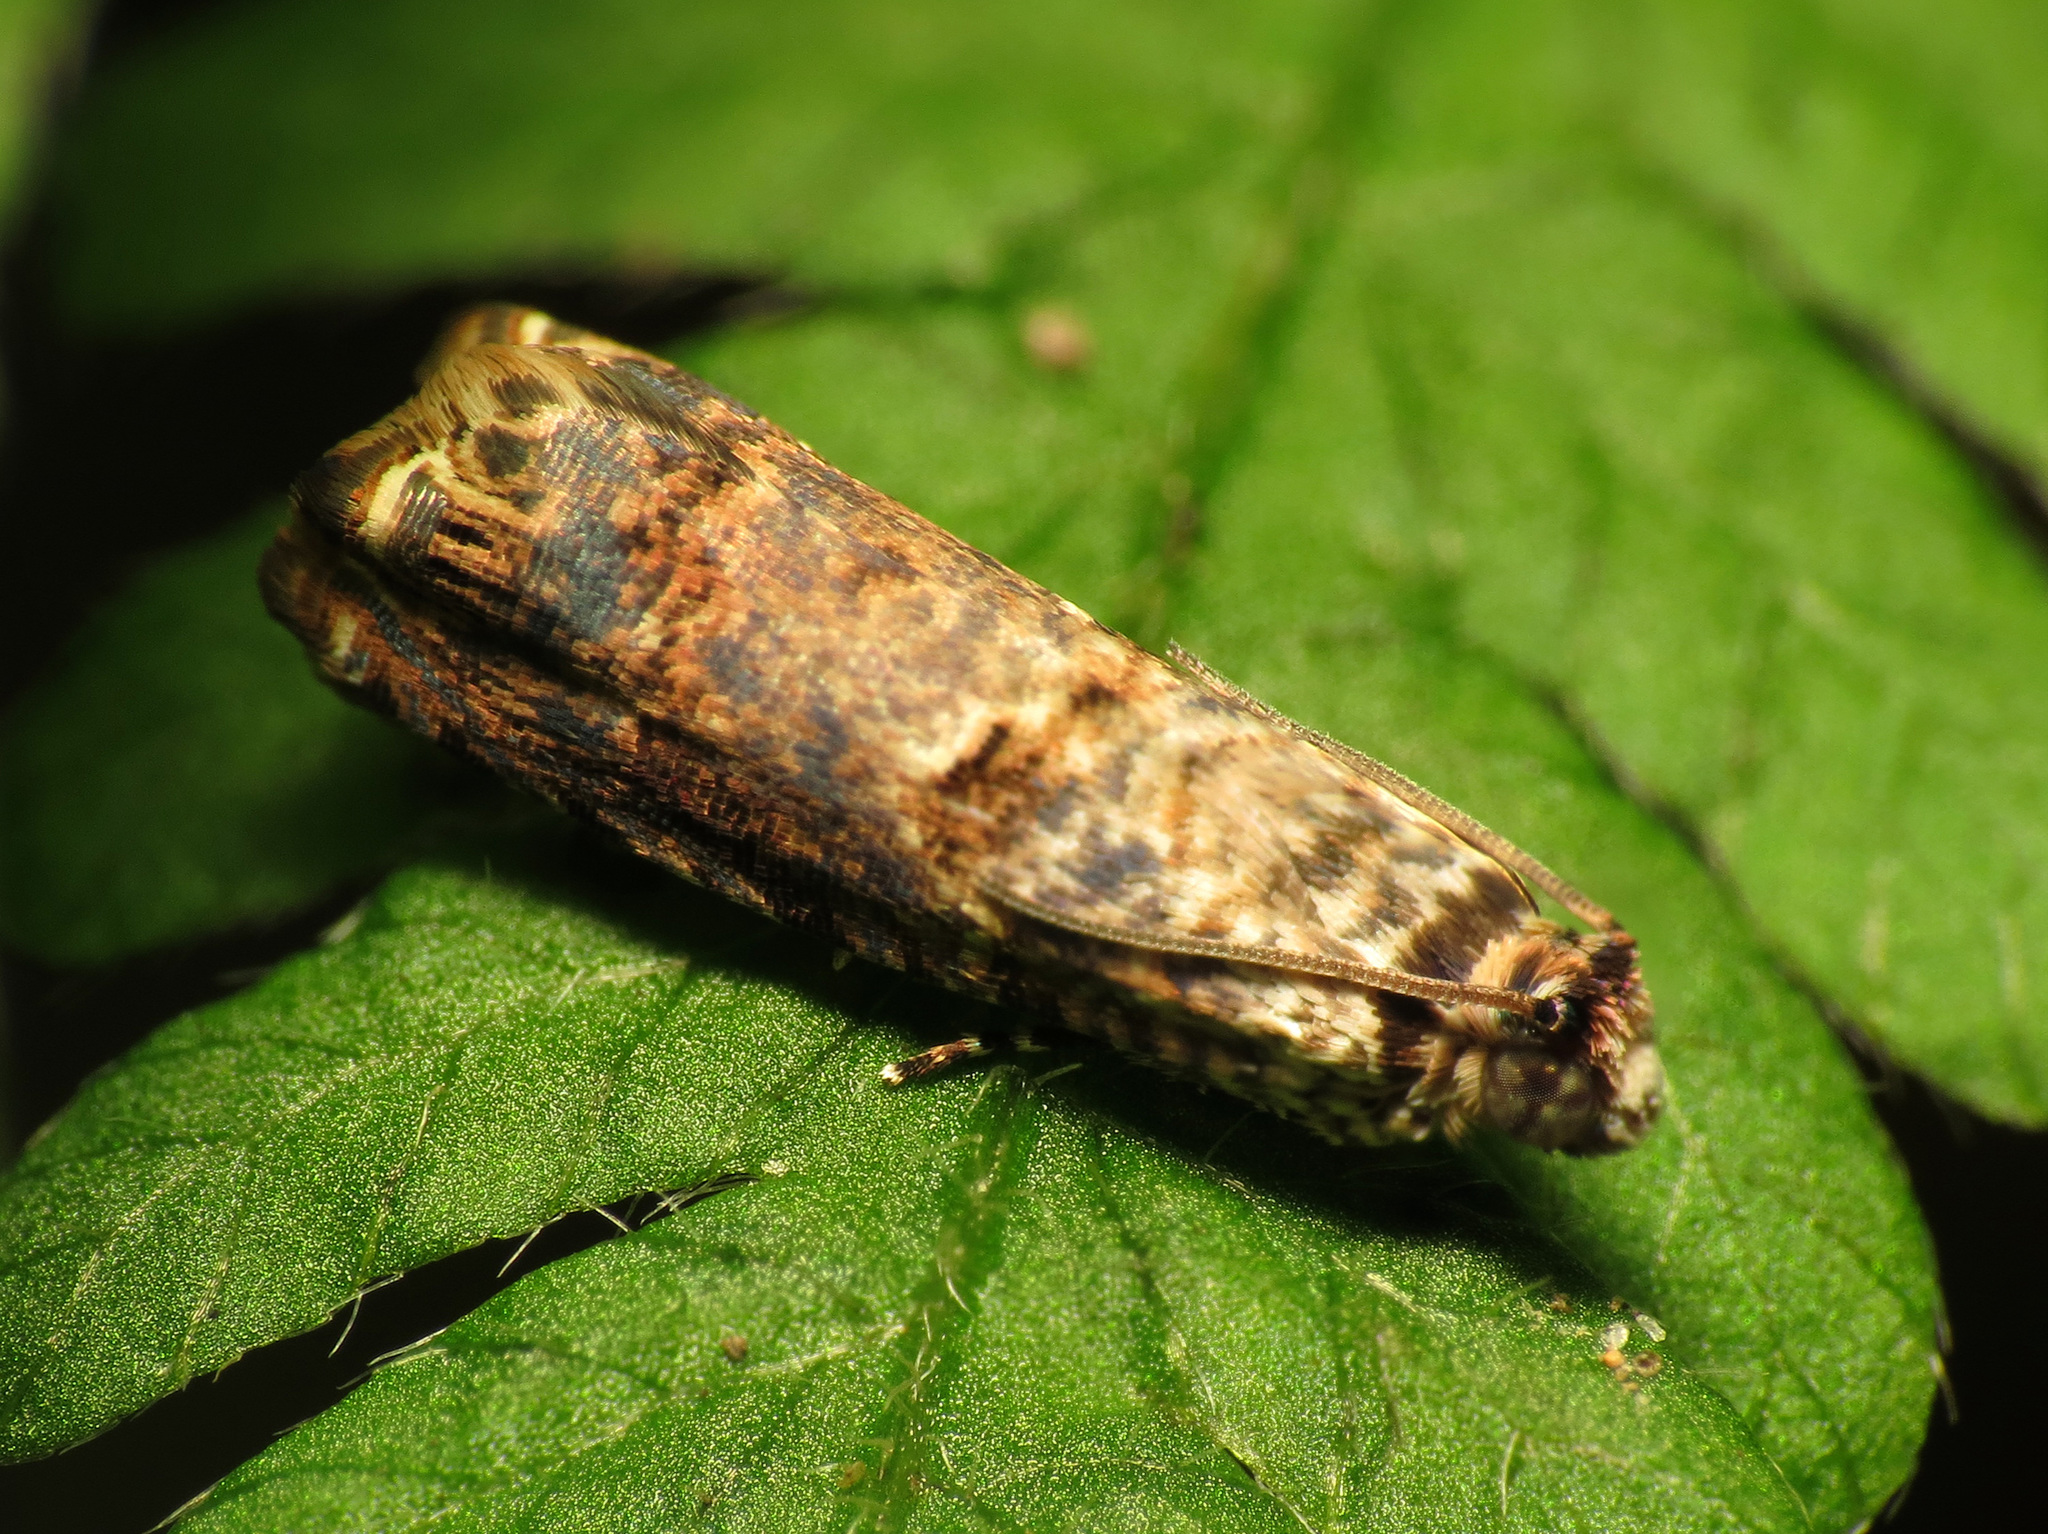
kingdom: Animalia
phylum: Arthropoda
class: Insecta
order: Lepidoptera
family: Tortricidae
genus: Episimus
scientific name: Episimus argutana
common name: Sumac leaftier moth
